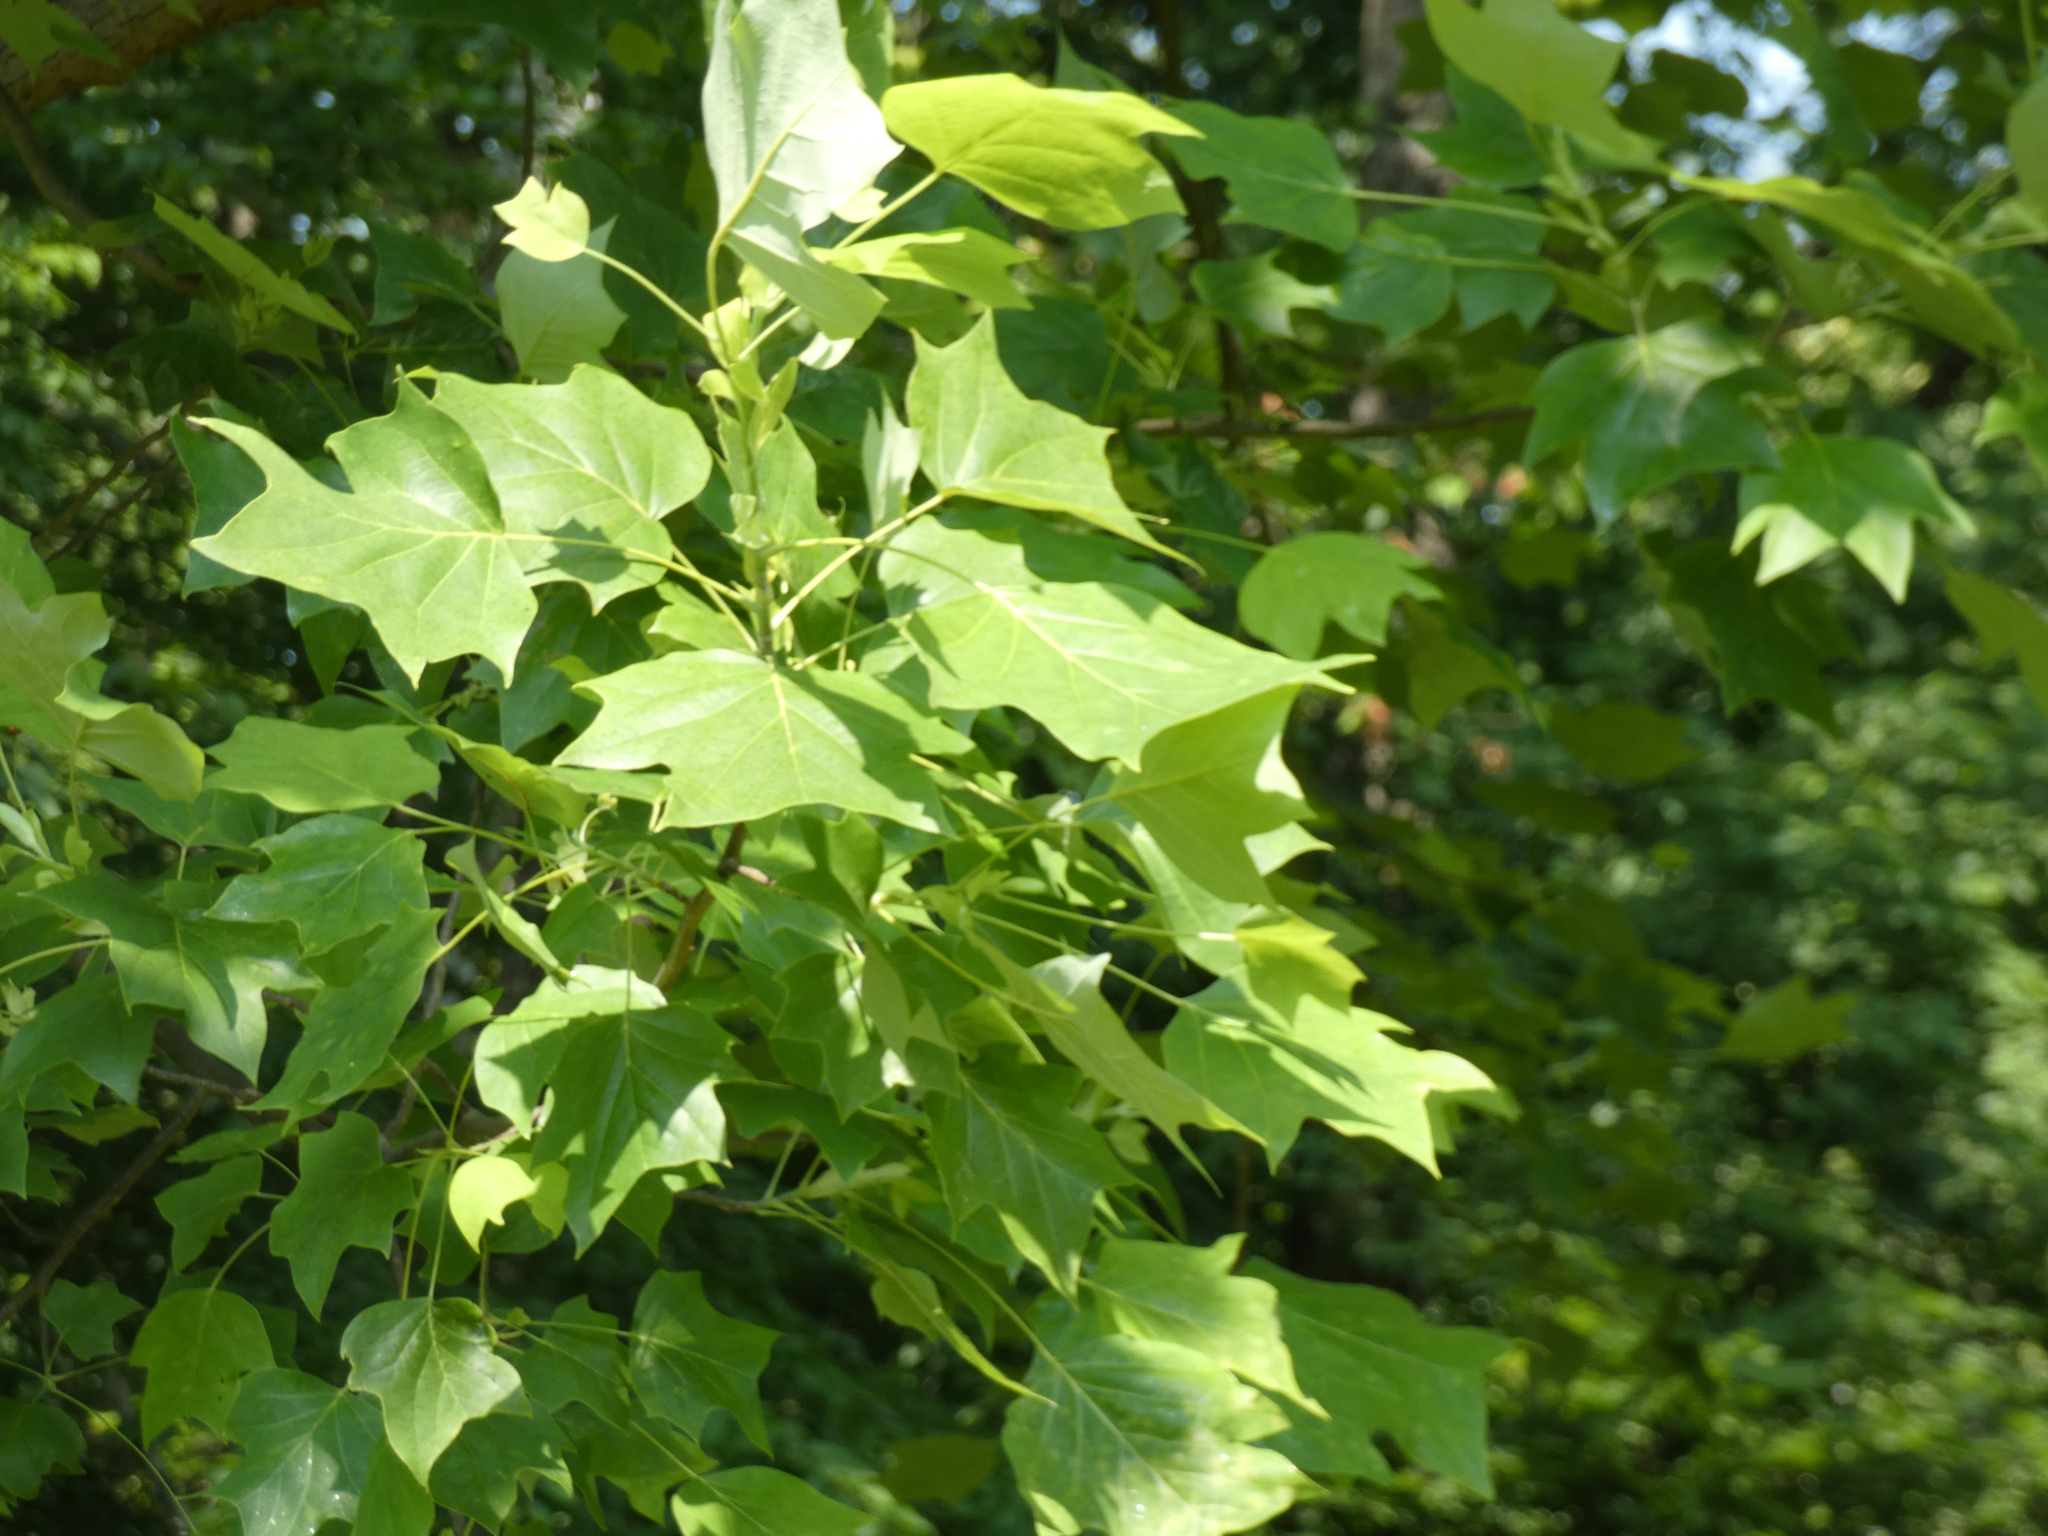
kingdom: Plantae
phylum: Tracheophyta
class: Magnoliopsida
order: Magnoliales
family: Magnoliaceae
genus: Liriodendron
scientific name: Liriodendron tulipifera
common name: Tulip tree
